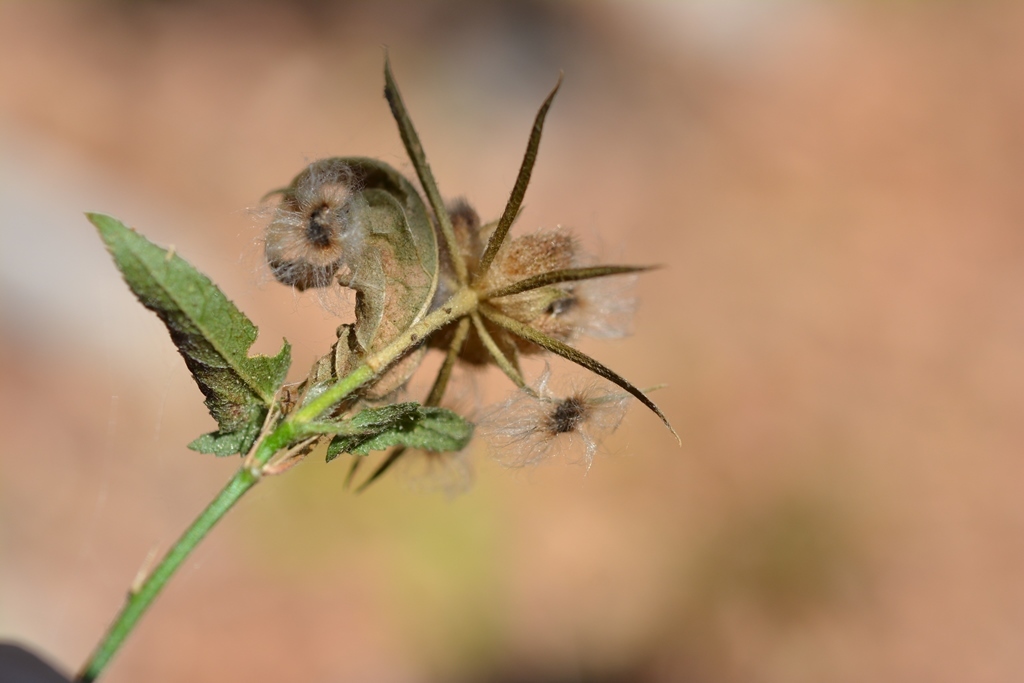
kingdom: Plantae
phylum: Tracheophyta
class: Magnoliopsida
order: Malvales
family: Malvaceae
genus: Hibiscus
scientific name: Hibiscus poeppigii
